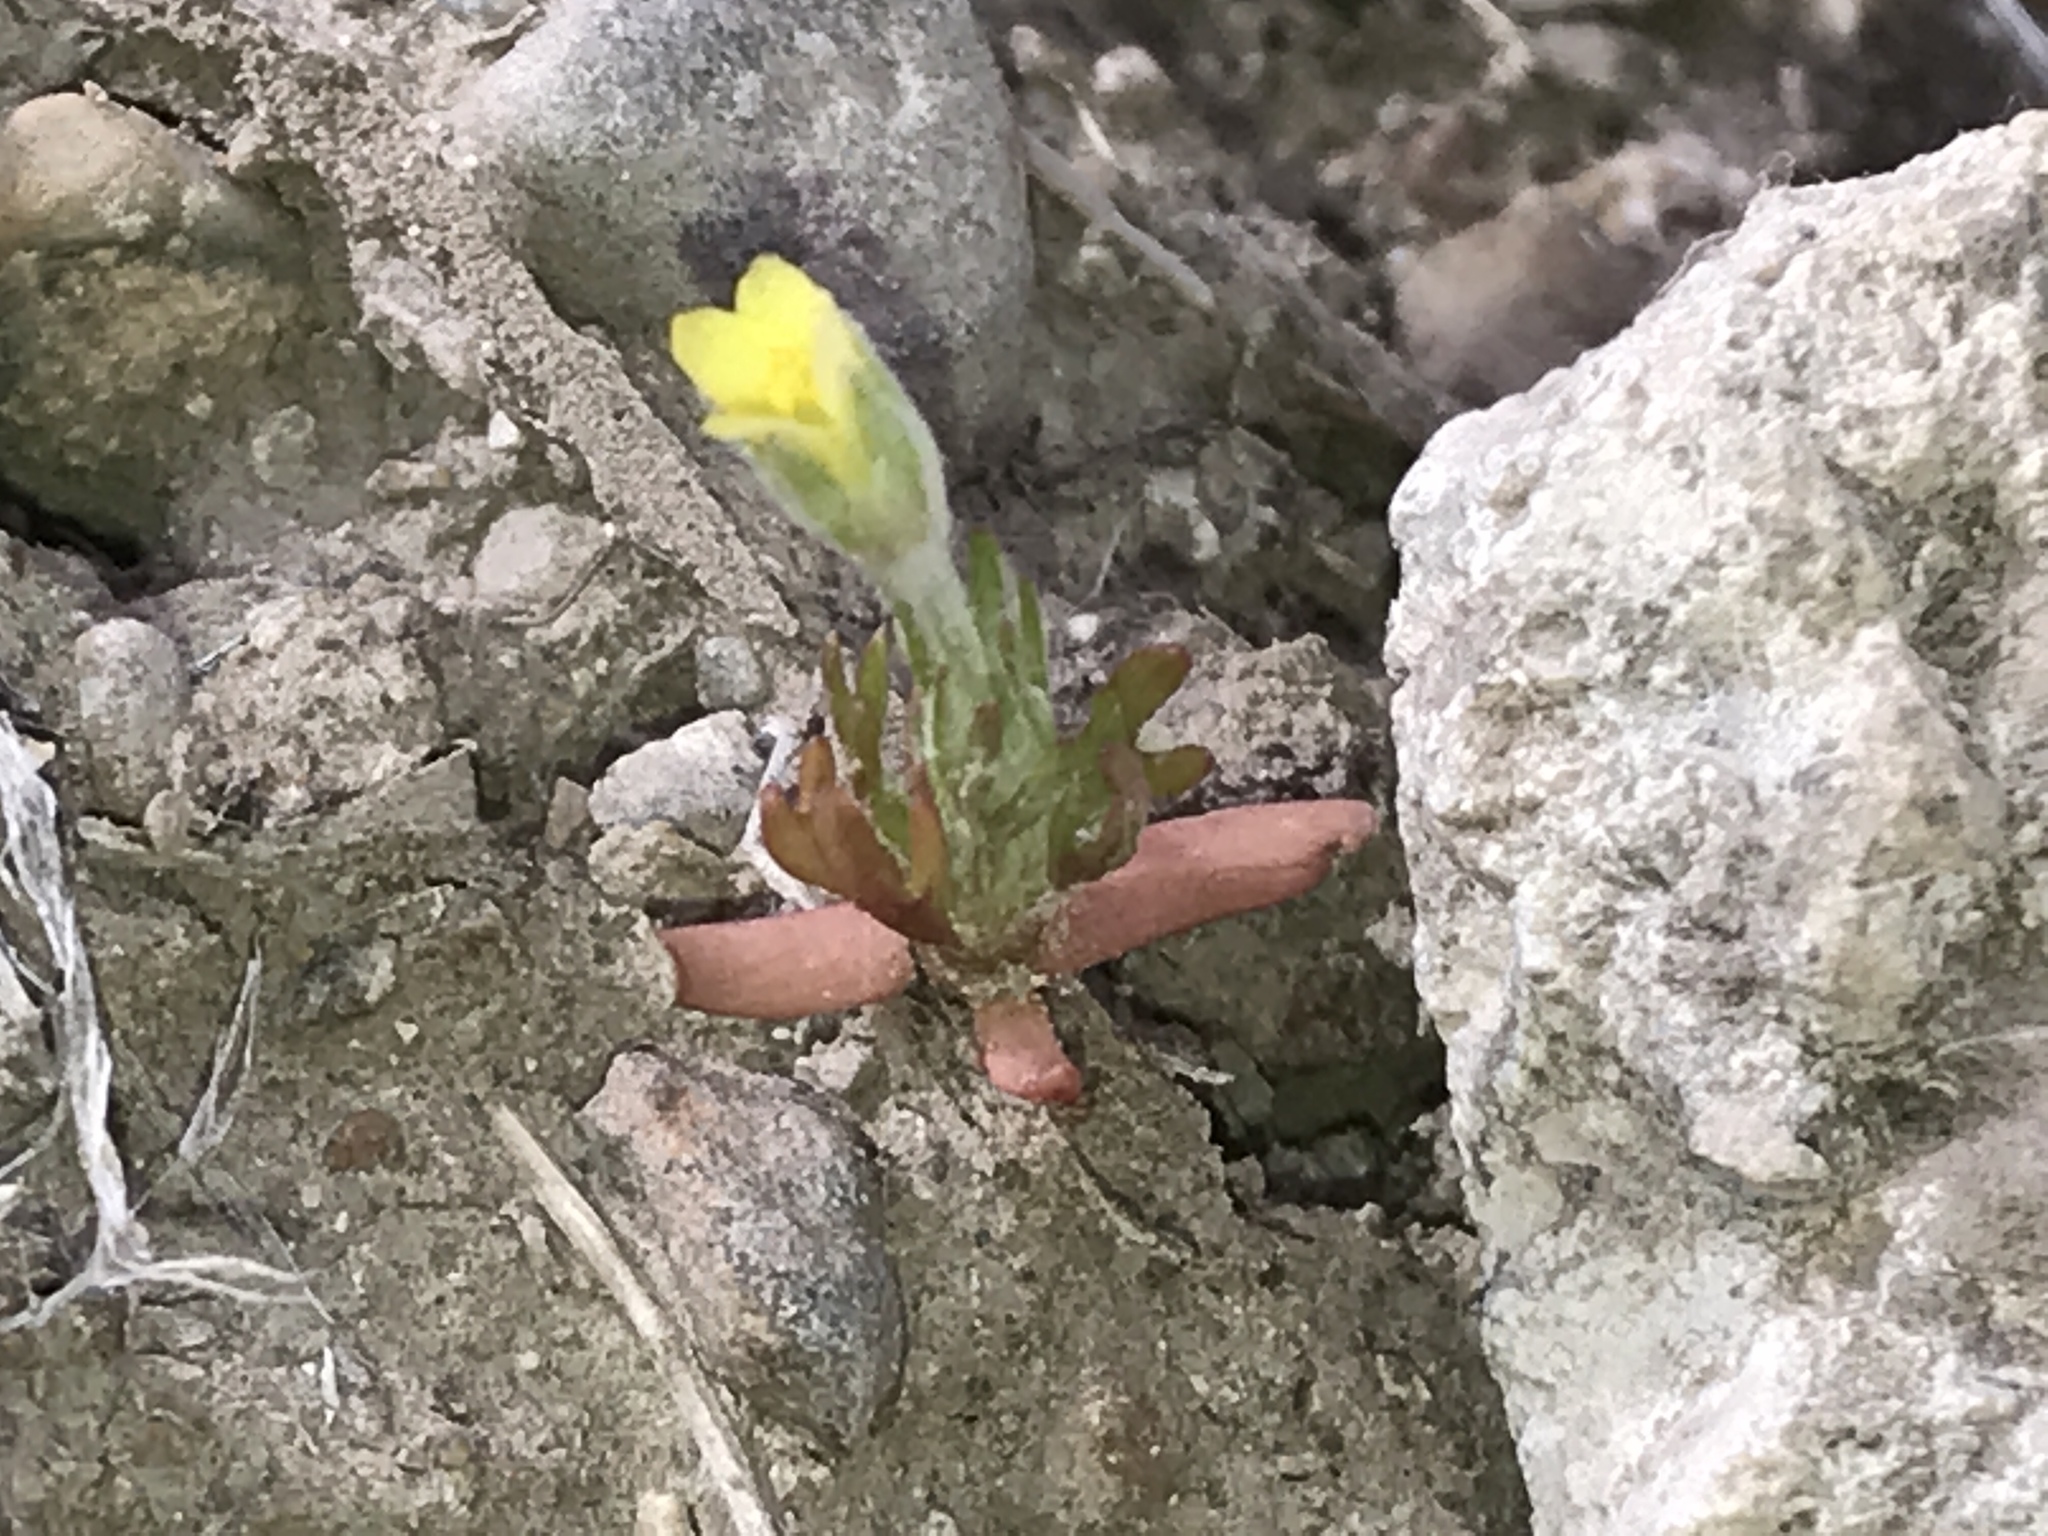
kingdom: Plantae
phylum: Tracheophyta
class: Magnoliopsida
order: Ranunculales
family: Ranunculaceae
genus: Ceratocephala
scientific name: Ceratocephala orthoceras
